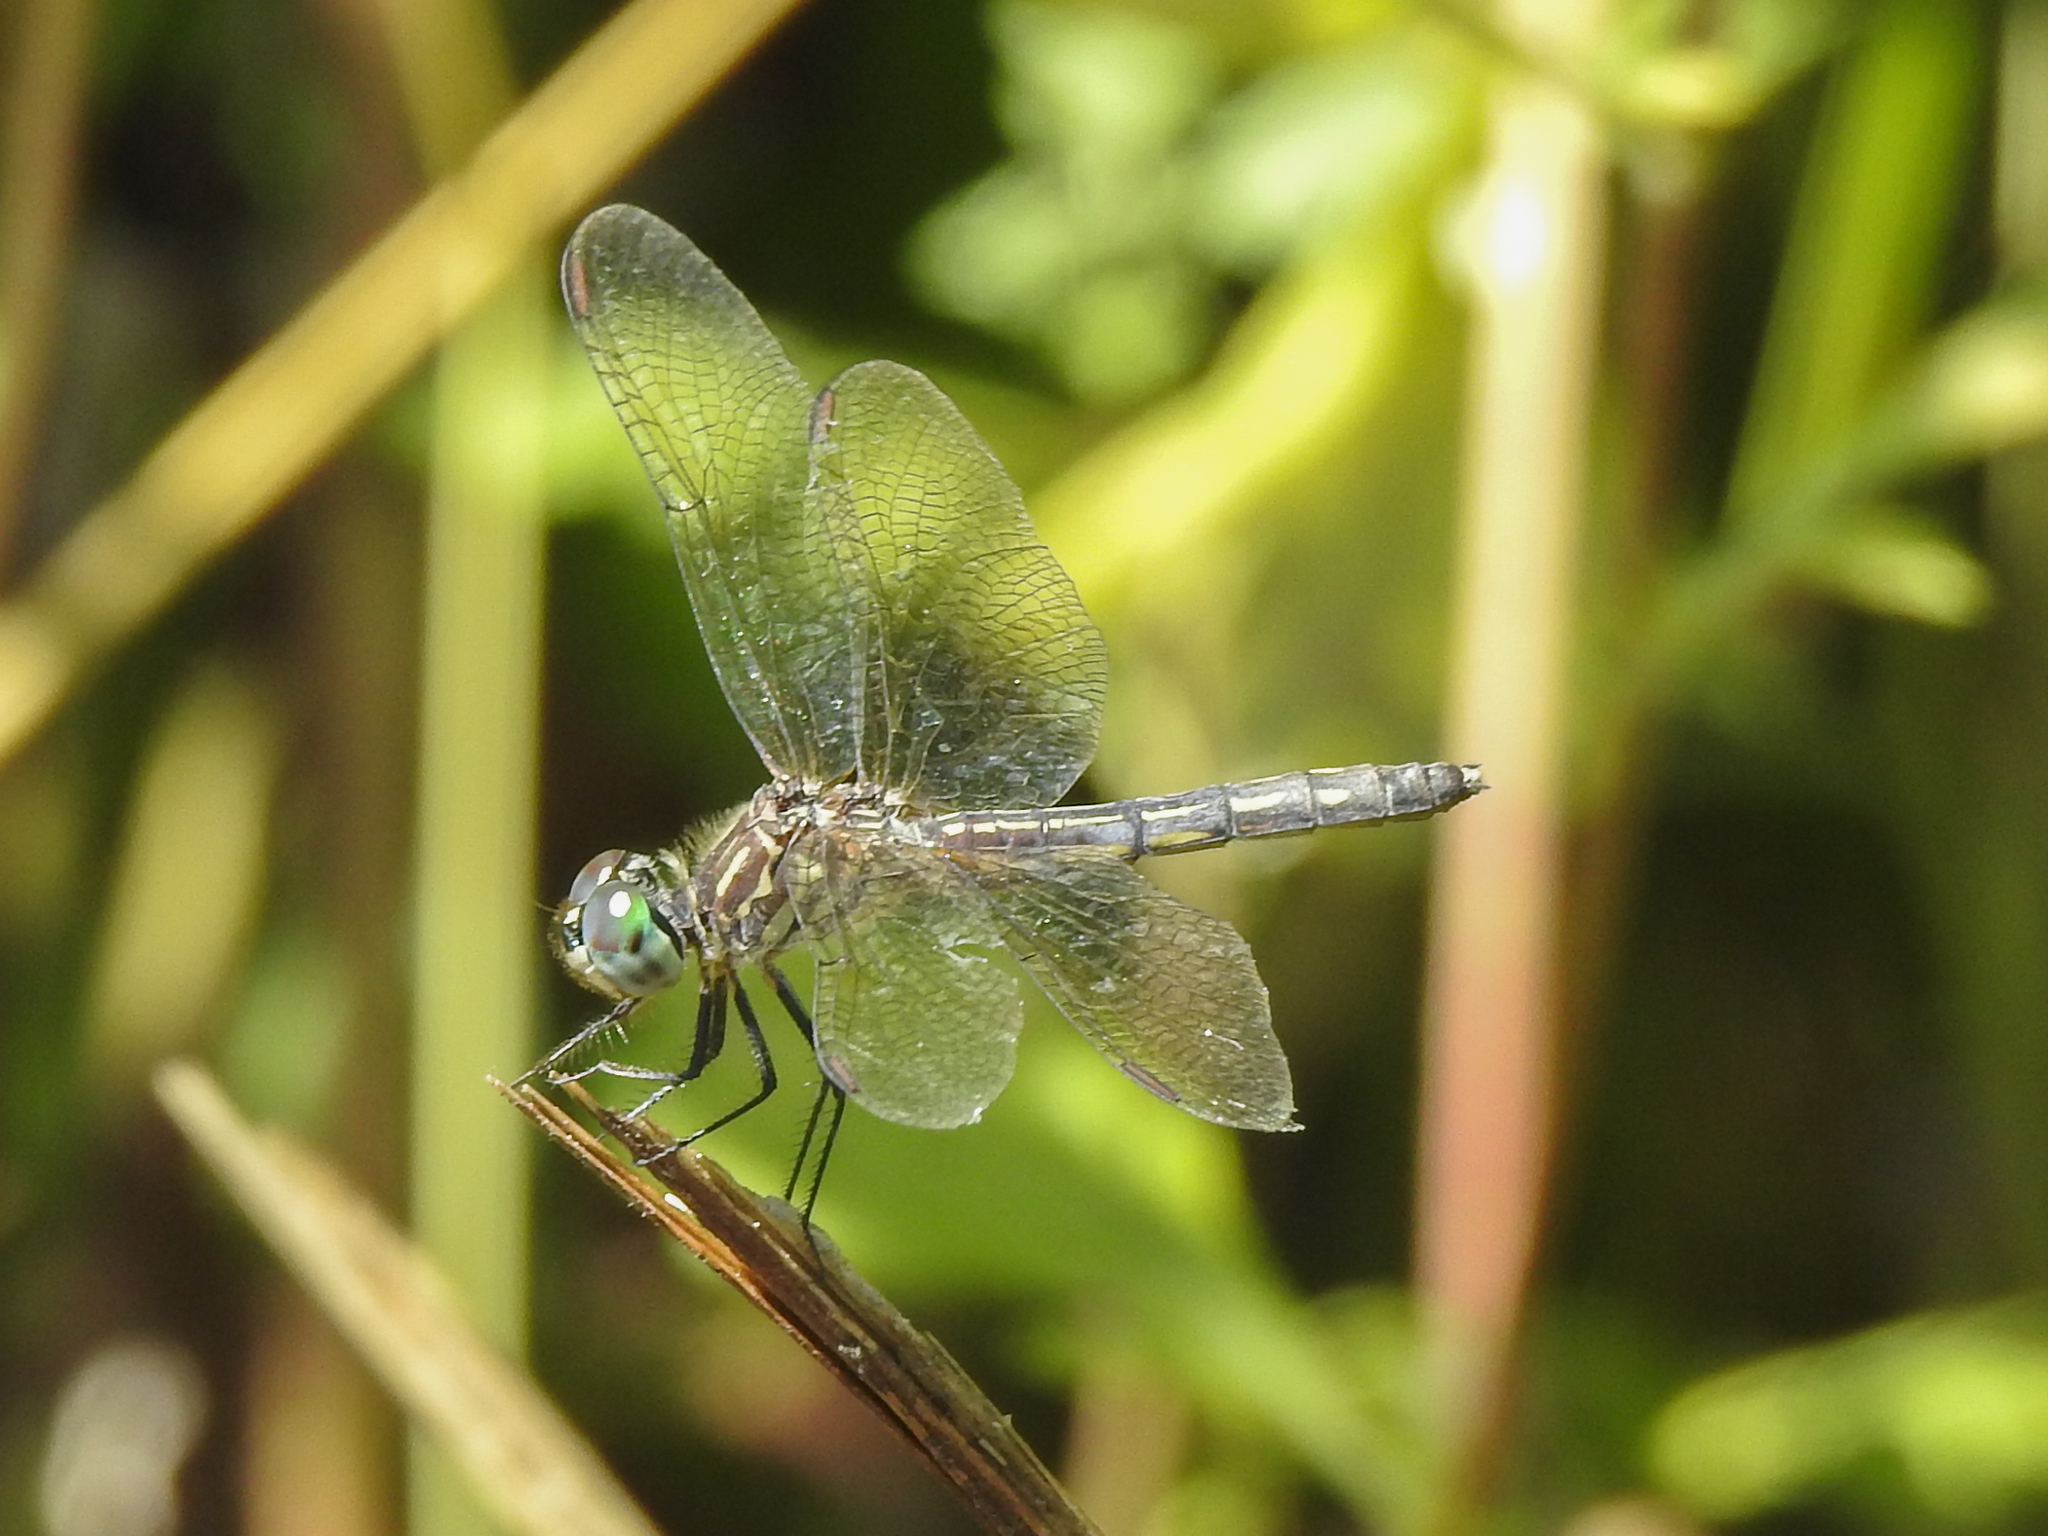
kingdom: Animalia
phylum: Arthropoda
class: Insecta
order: Odonata
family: Libellulidae
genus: Pachydiplax
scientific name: Pachydiplax longipennis
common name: Blue dasher
